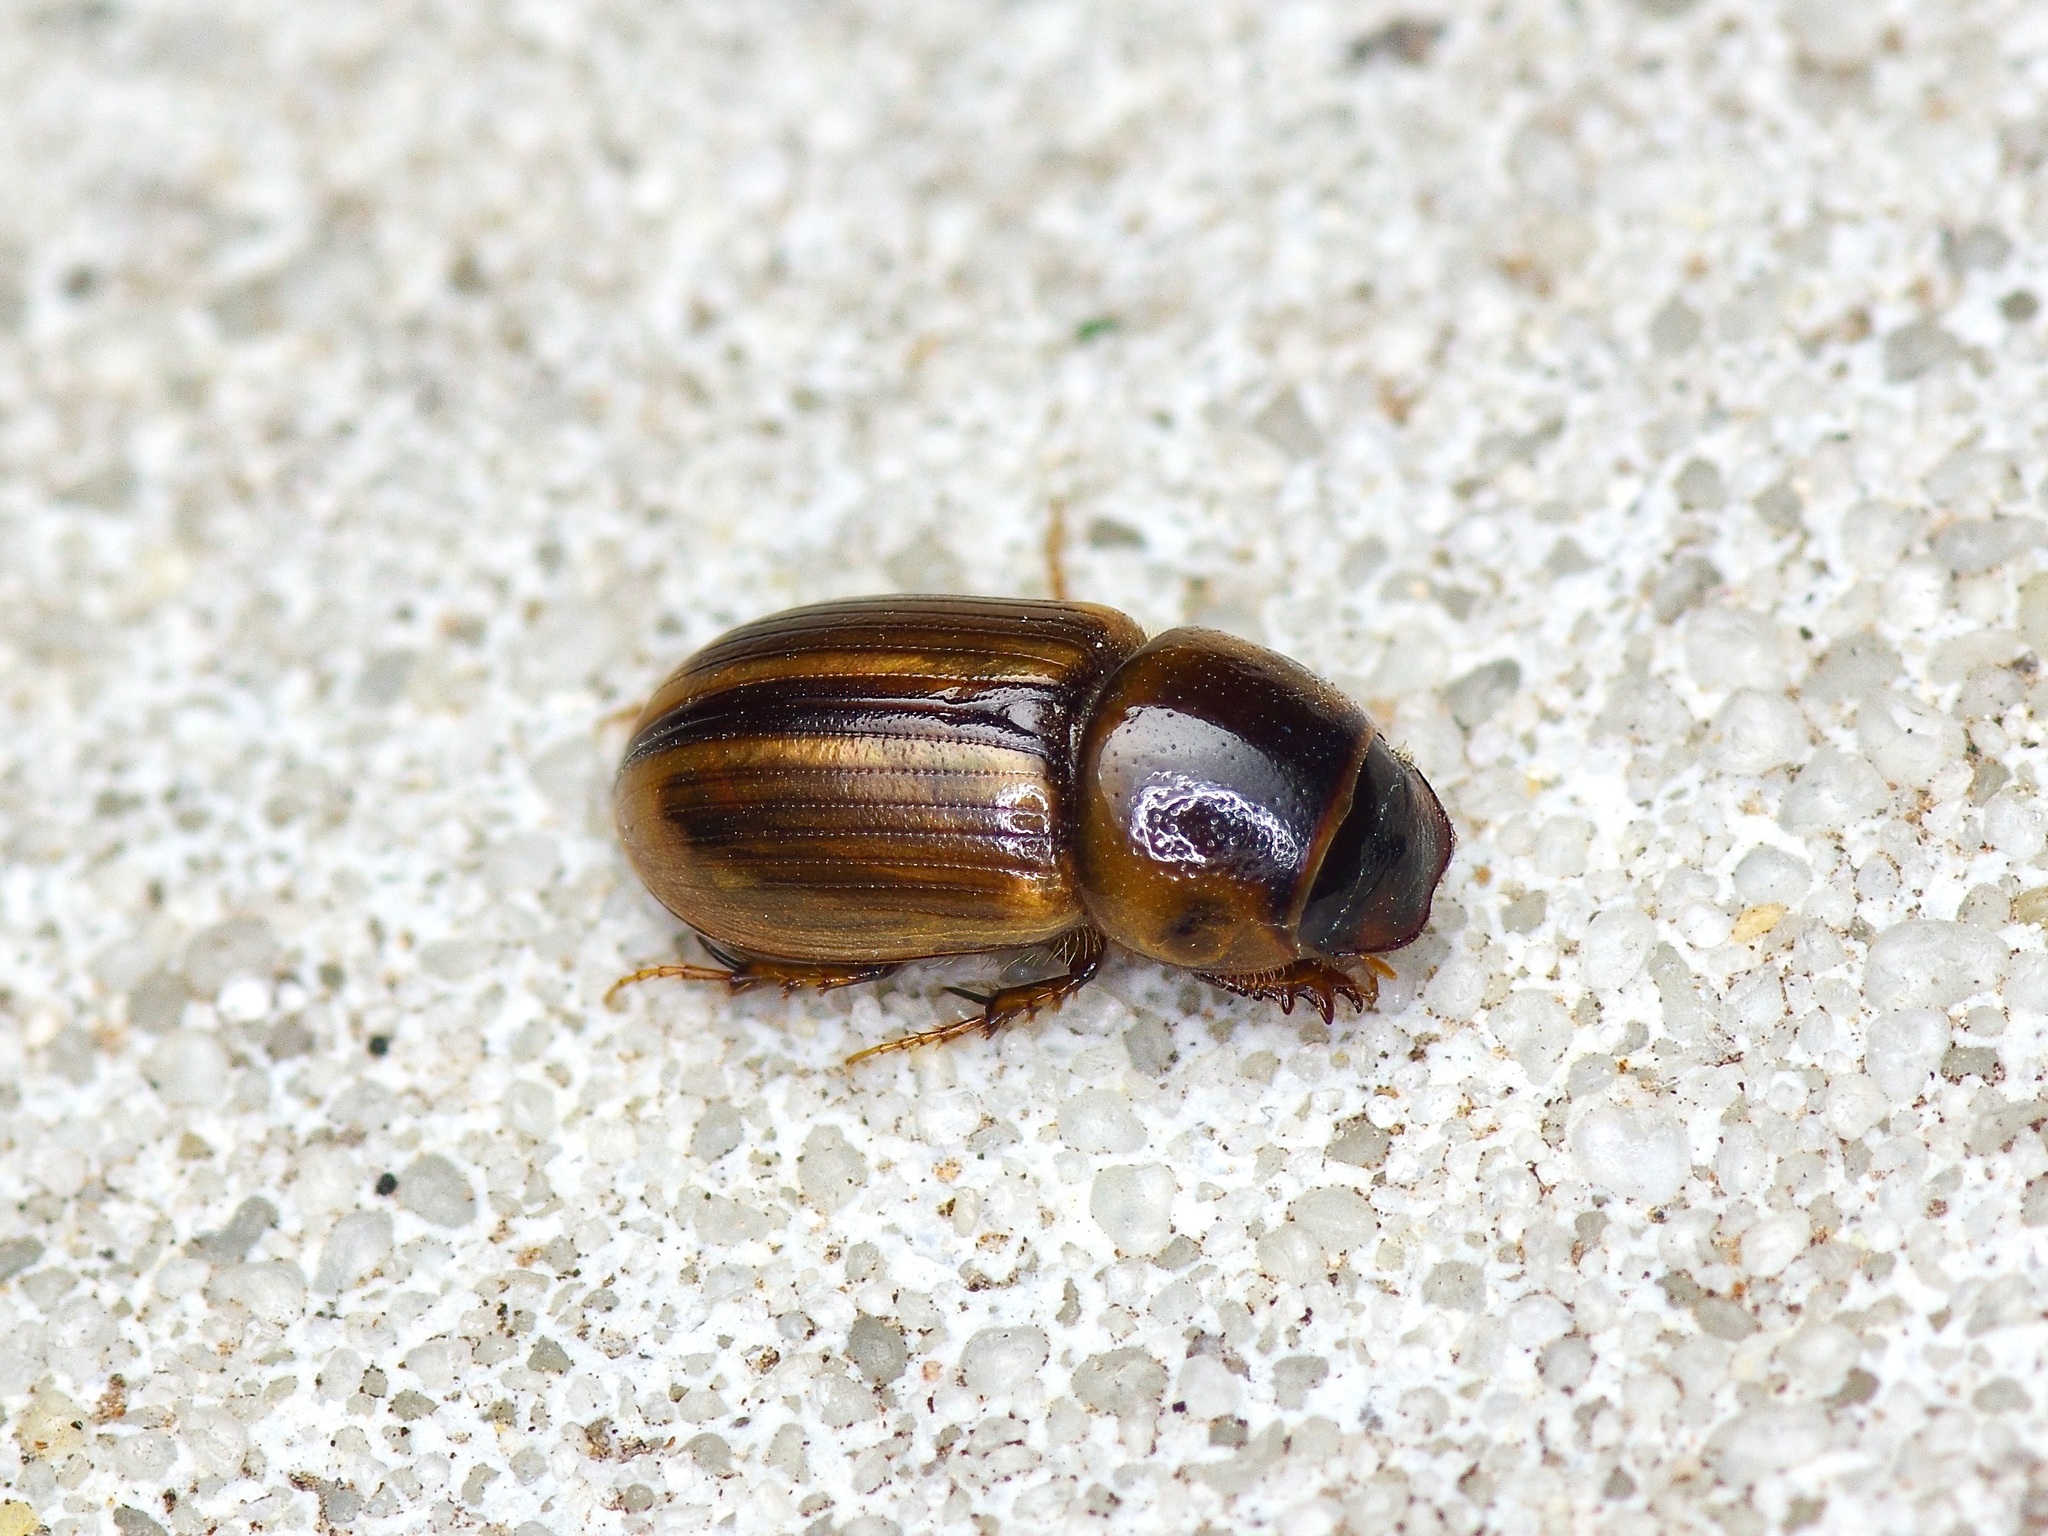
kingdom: Animalia
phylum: Arthropoda
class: Insecta
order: Coleoptera
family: Scarabaeidae
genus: Labarrus
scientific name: Labarrus lividus
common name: Scarab beetle
